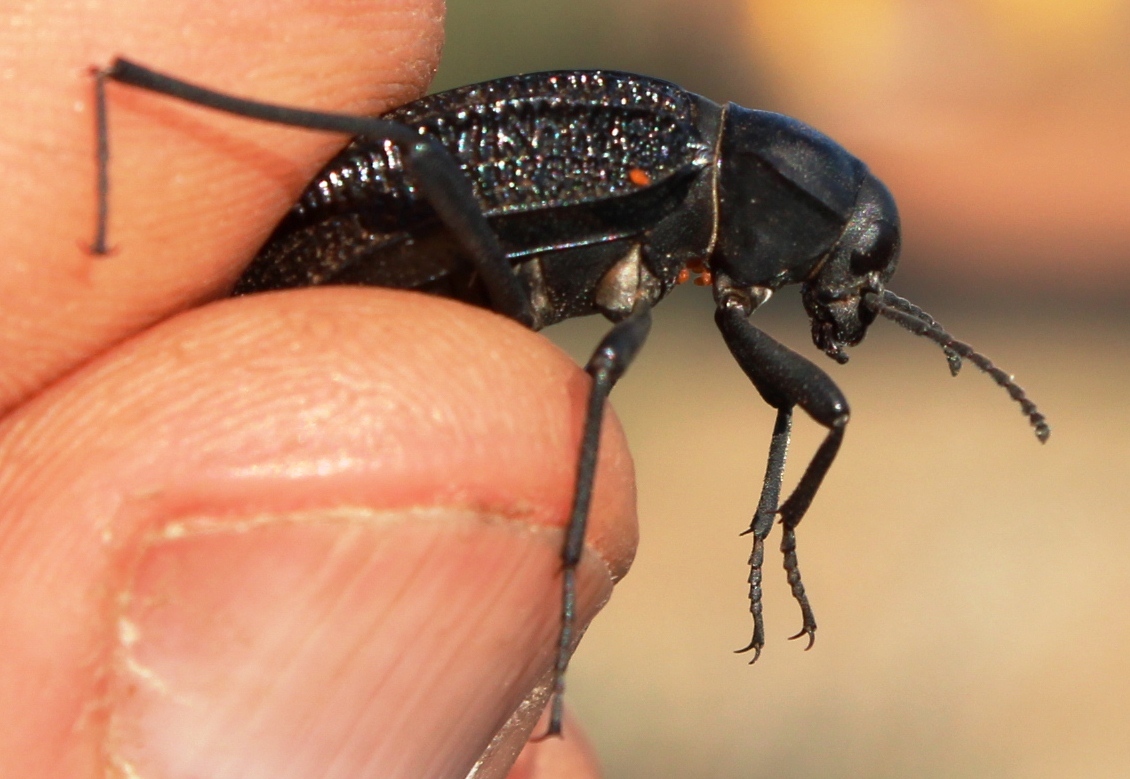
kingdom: Animalia
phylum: Arthropoda
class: Insecta
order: Coleoptera
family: Tenebrionidae
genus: Somaticus
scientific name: Somaticus aeneus
